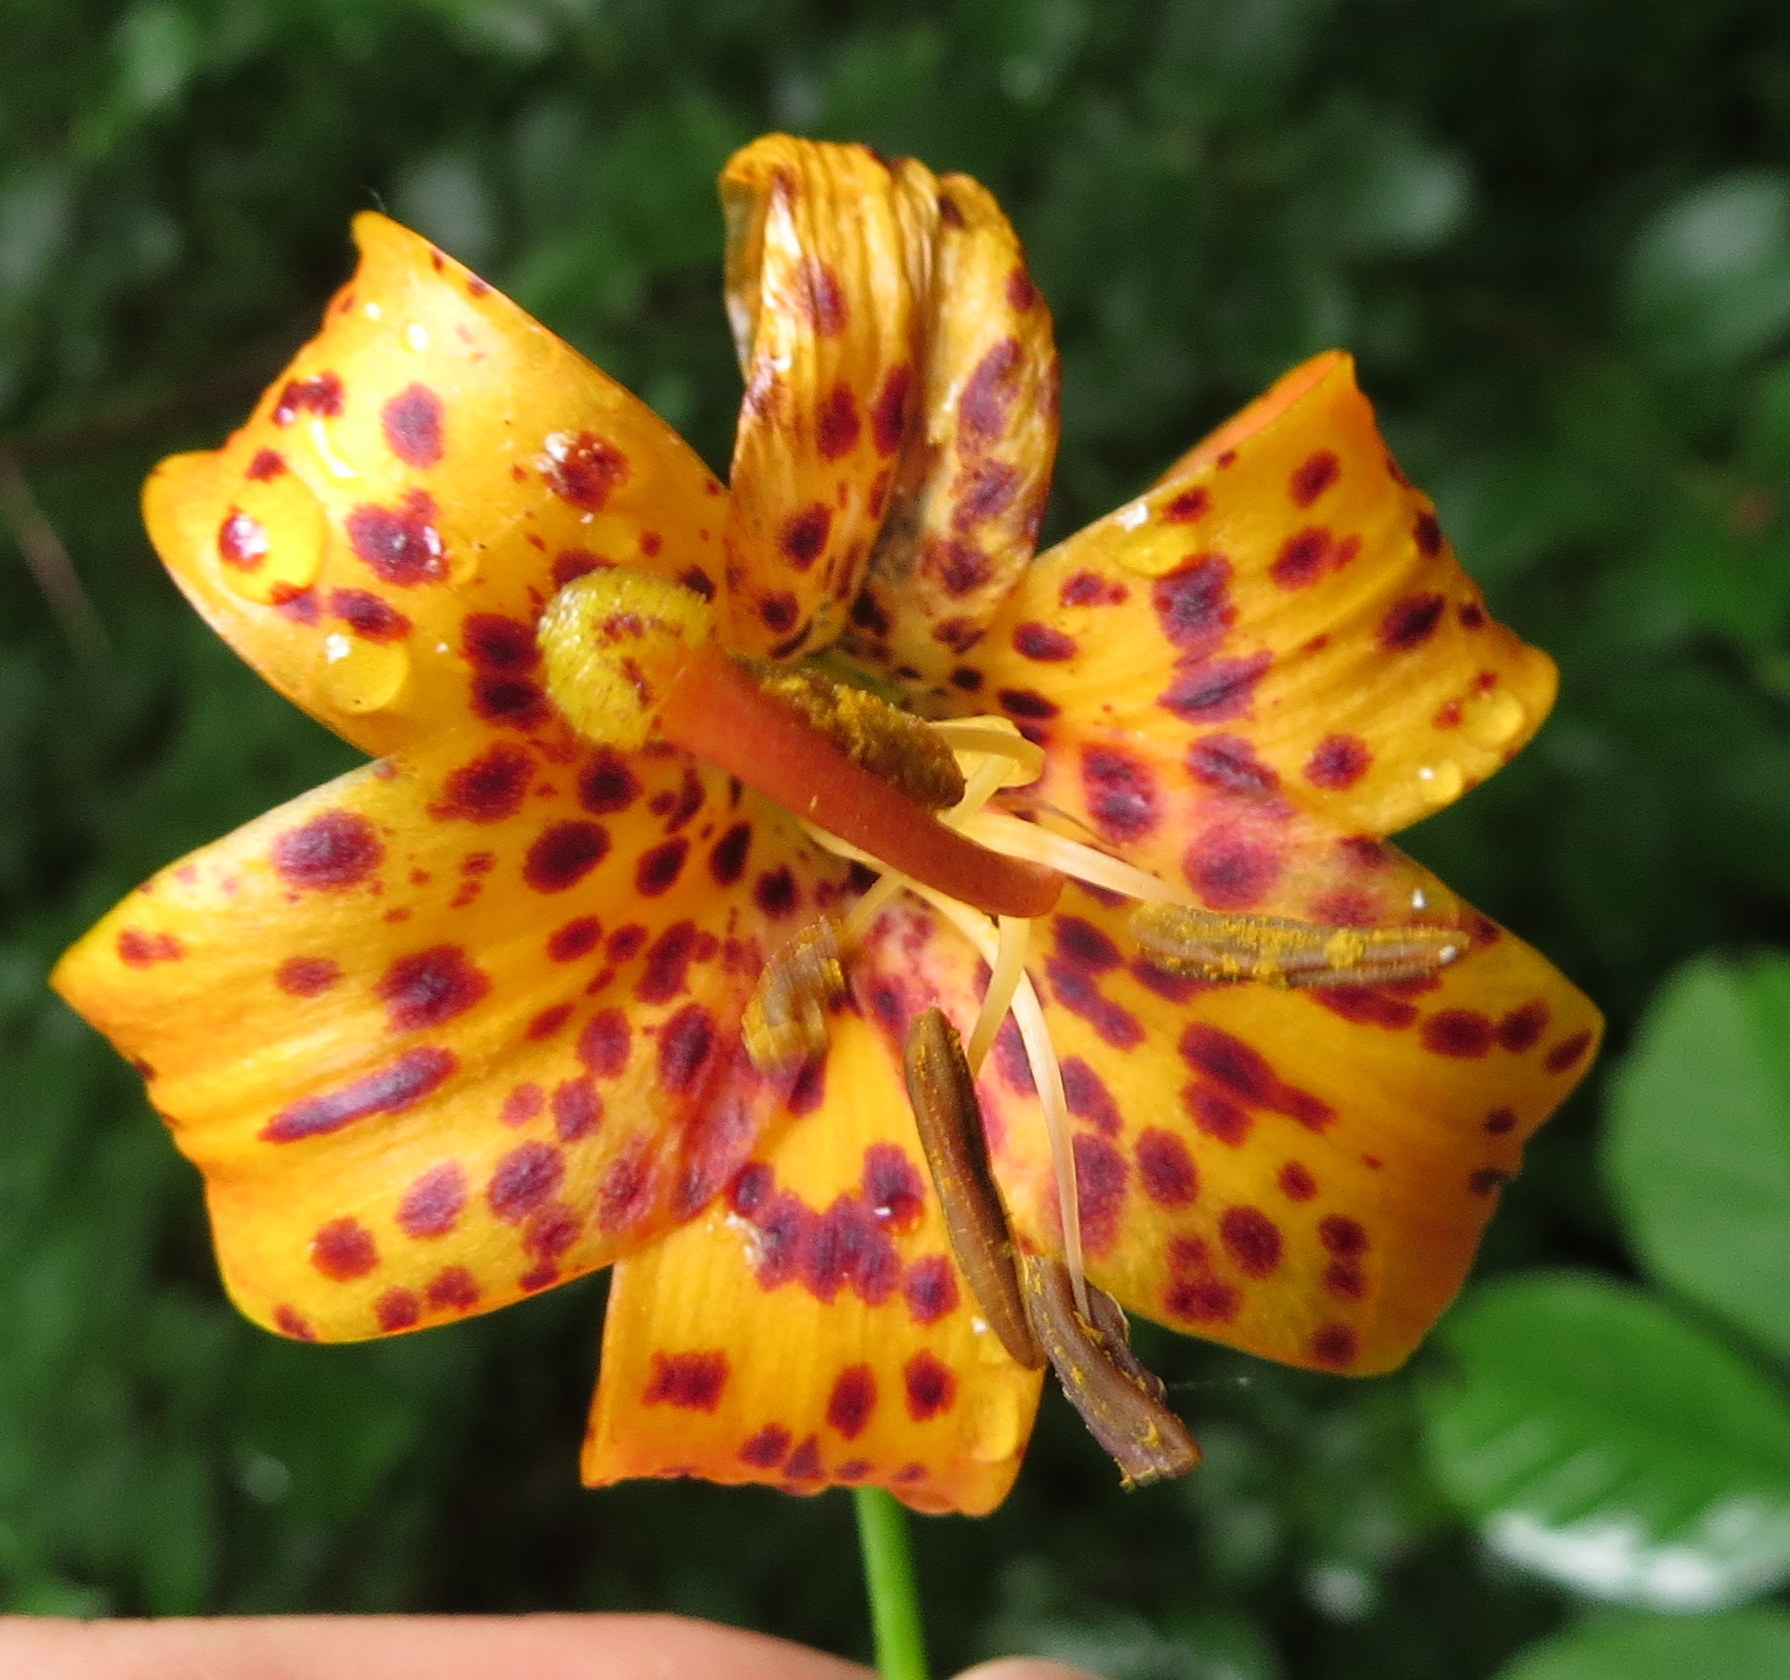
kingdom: Plantae
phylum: Tracheophyta
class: Liliopsida
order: Liliales
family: Liliaceae
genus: Lilium
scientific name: Lilium michiganense
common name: Michigan lily
